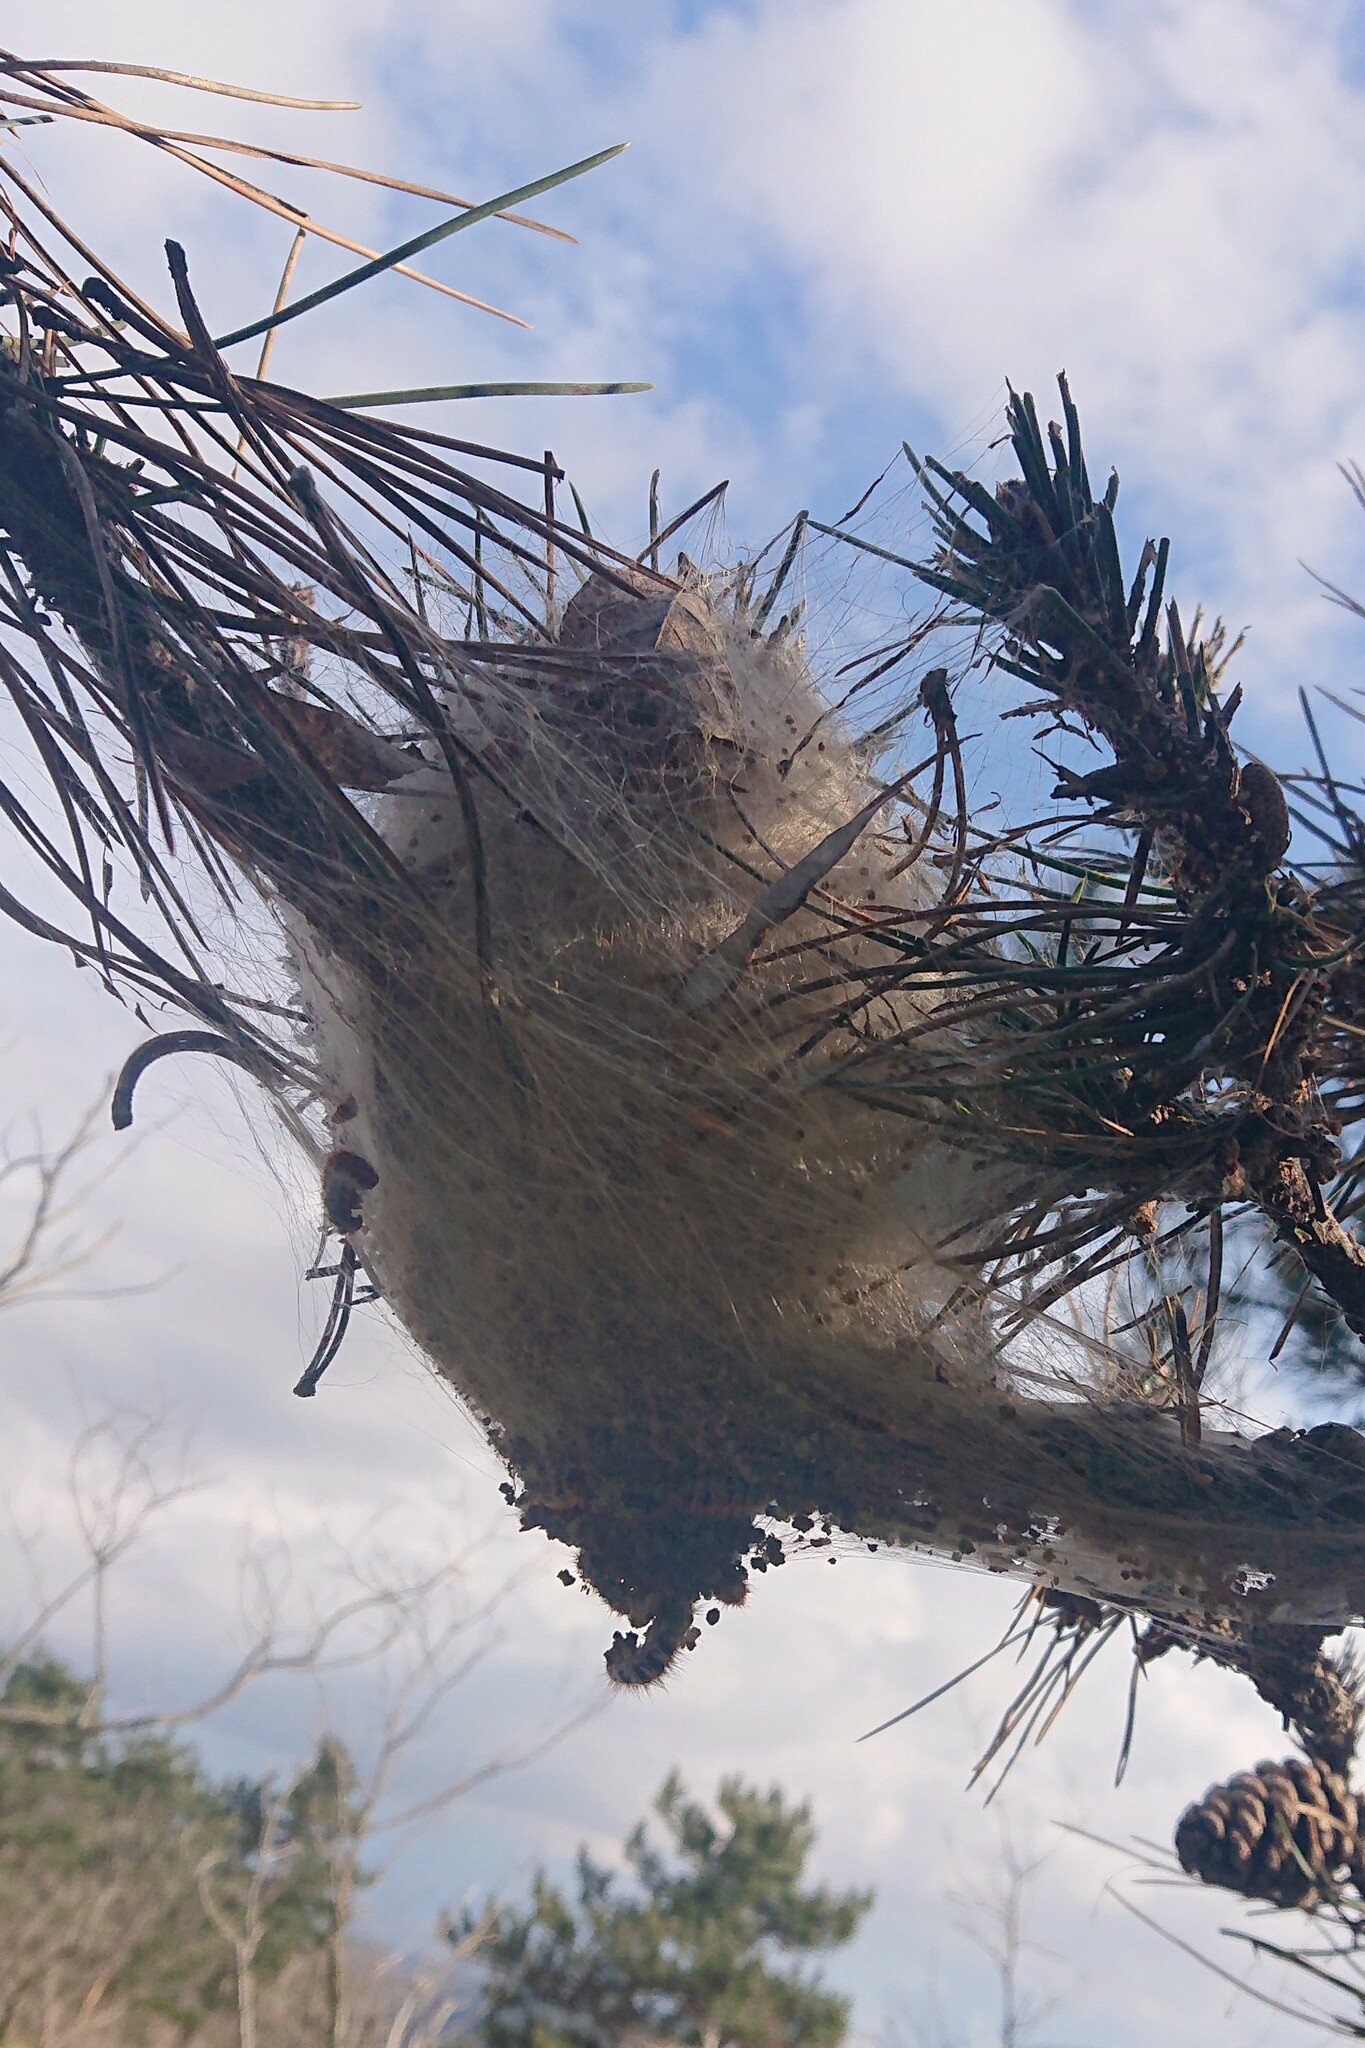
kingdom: Animalia
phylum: Arthropoda
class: Insecta
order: Lepidoptera
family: Notodontidae
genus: Thaumetopoea
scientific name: Thaumetopoea pityocampa
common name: Pine processionary
